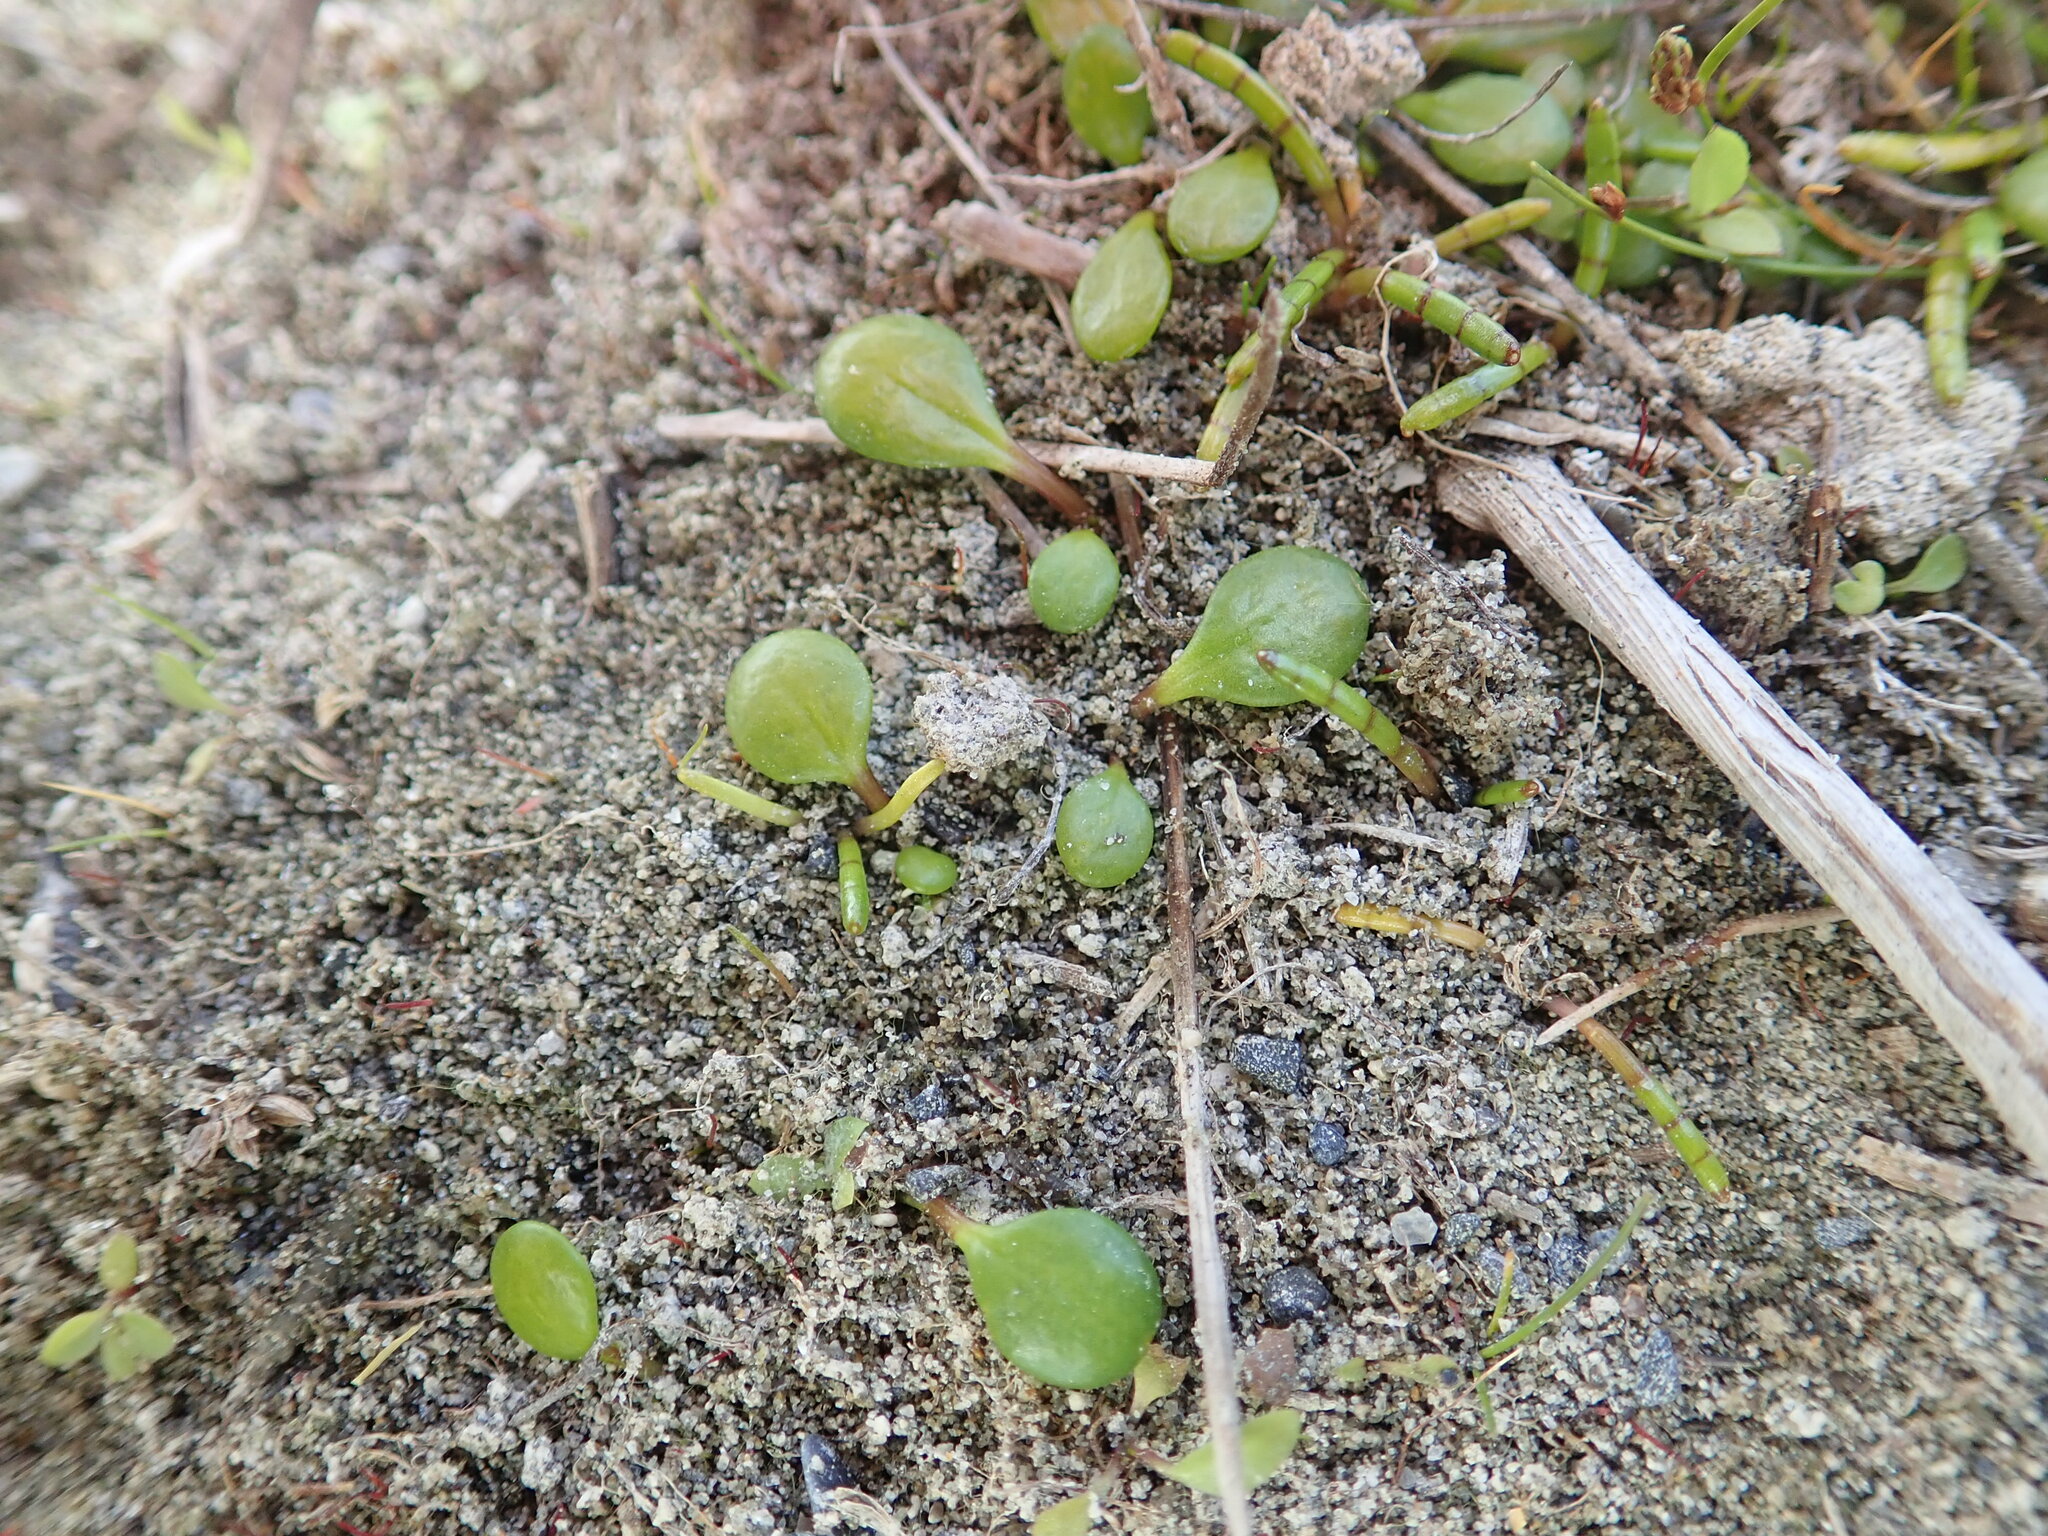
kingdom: Plantae
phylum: Tracheophyta
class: Magnoliopsida
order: Apiales
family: Apiaceae
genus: Lilaeopsis
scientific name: Lilaeopsis novae-zelandiae
